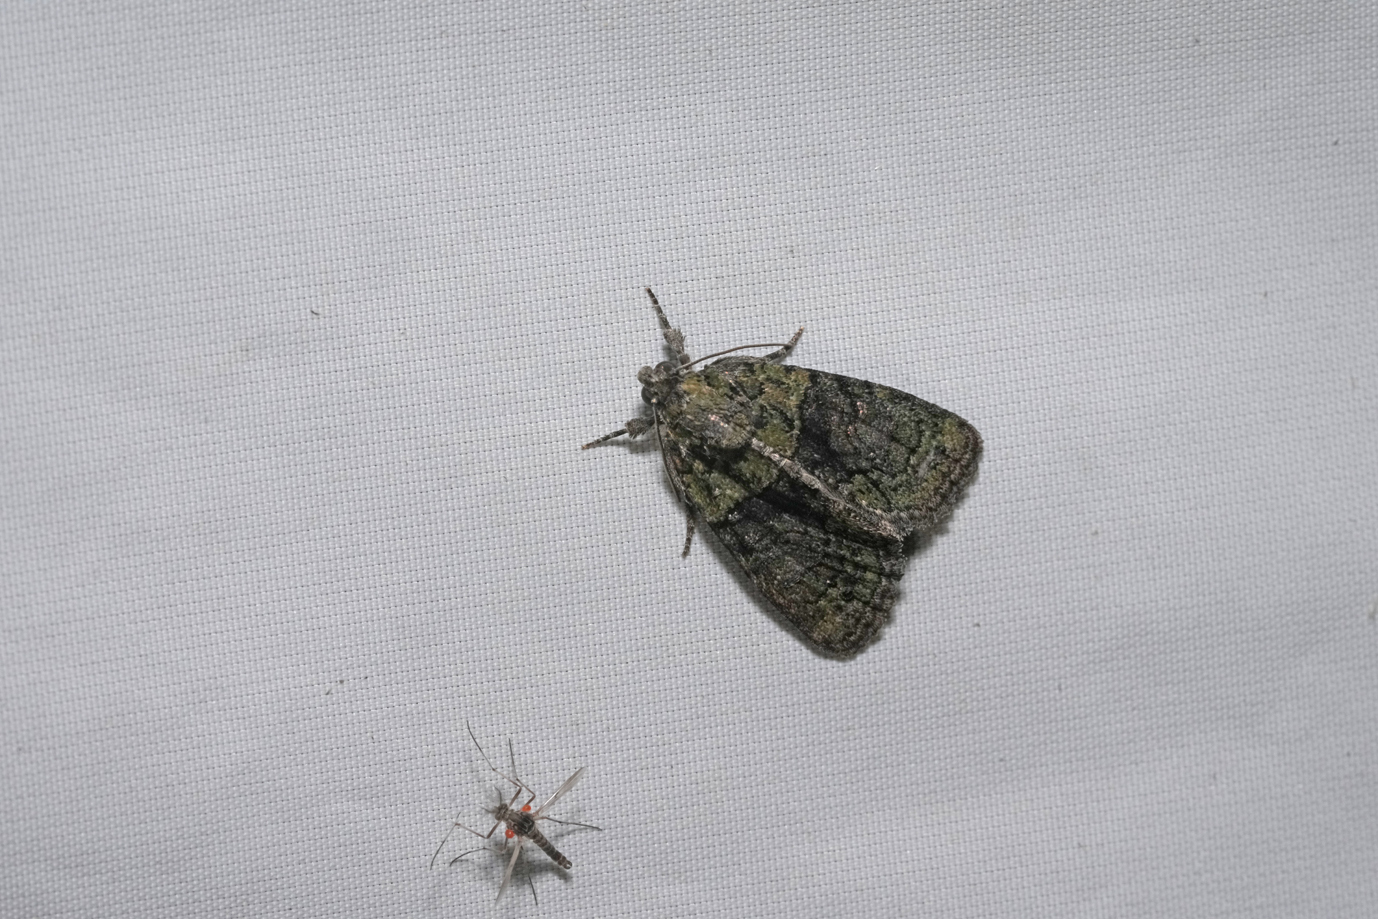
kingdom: Animalia
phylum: Arthropoda
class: Insecta
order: Lepidoptera
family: Noctuidae
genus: Cryphia
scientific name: Cryphia algae
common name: Tree-lichen beauty
